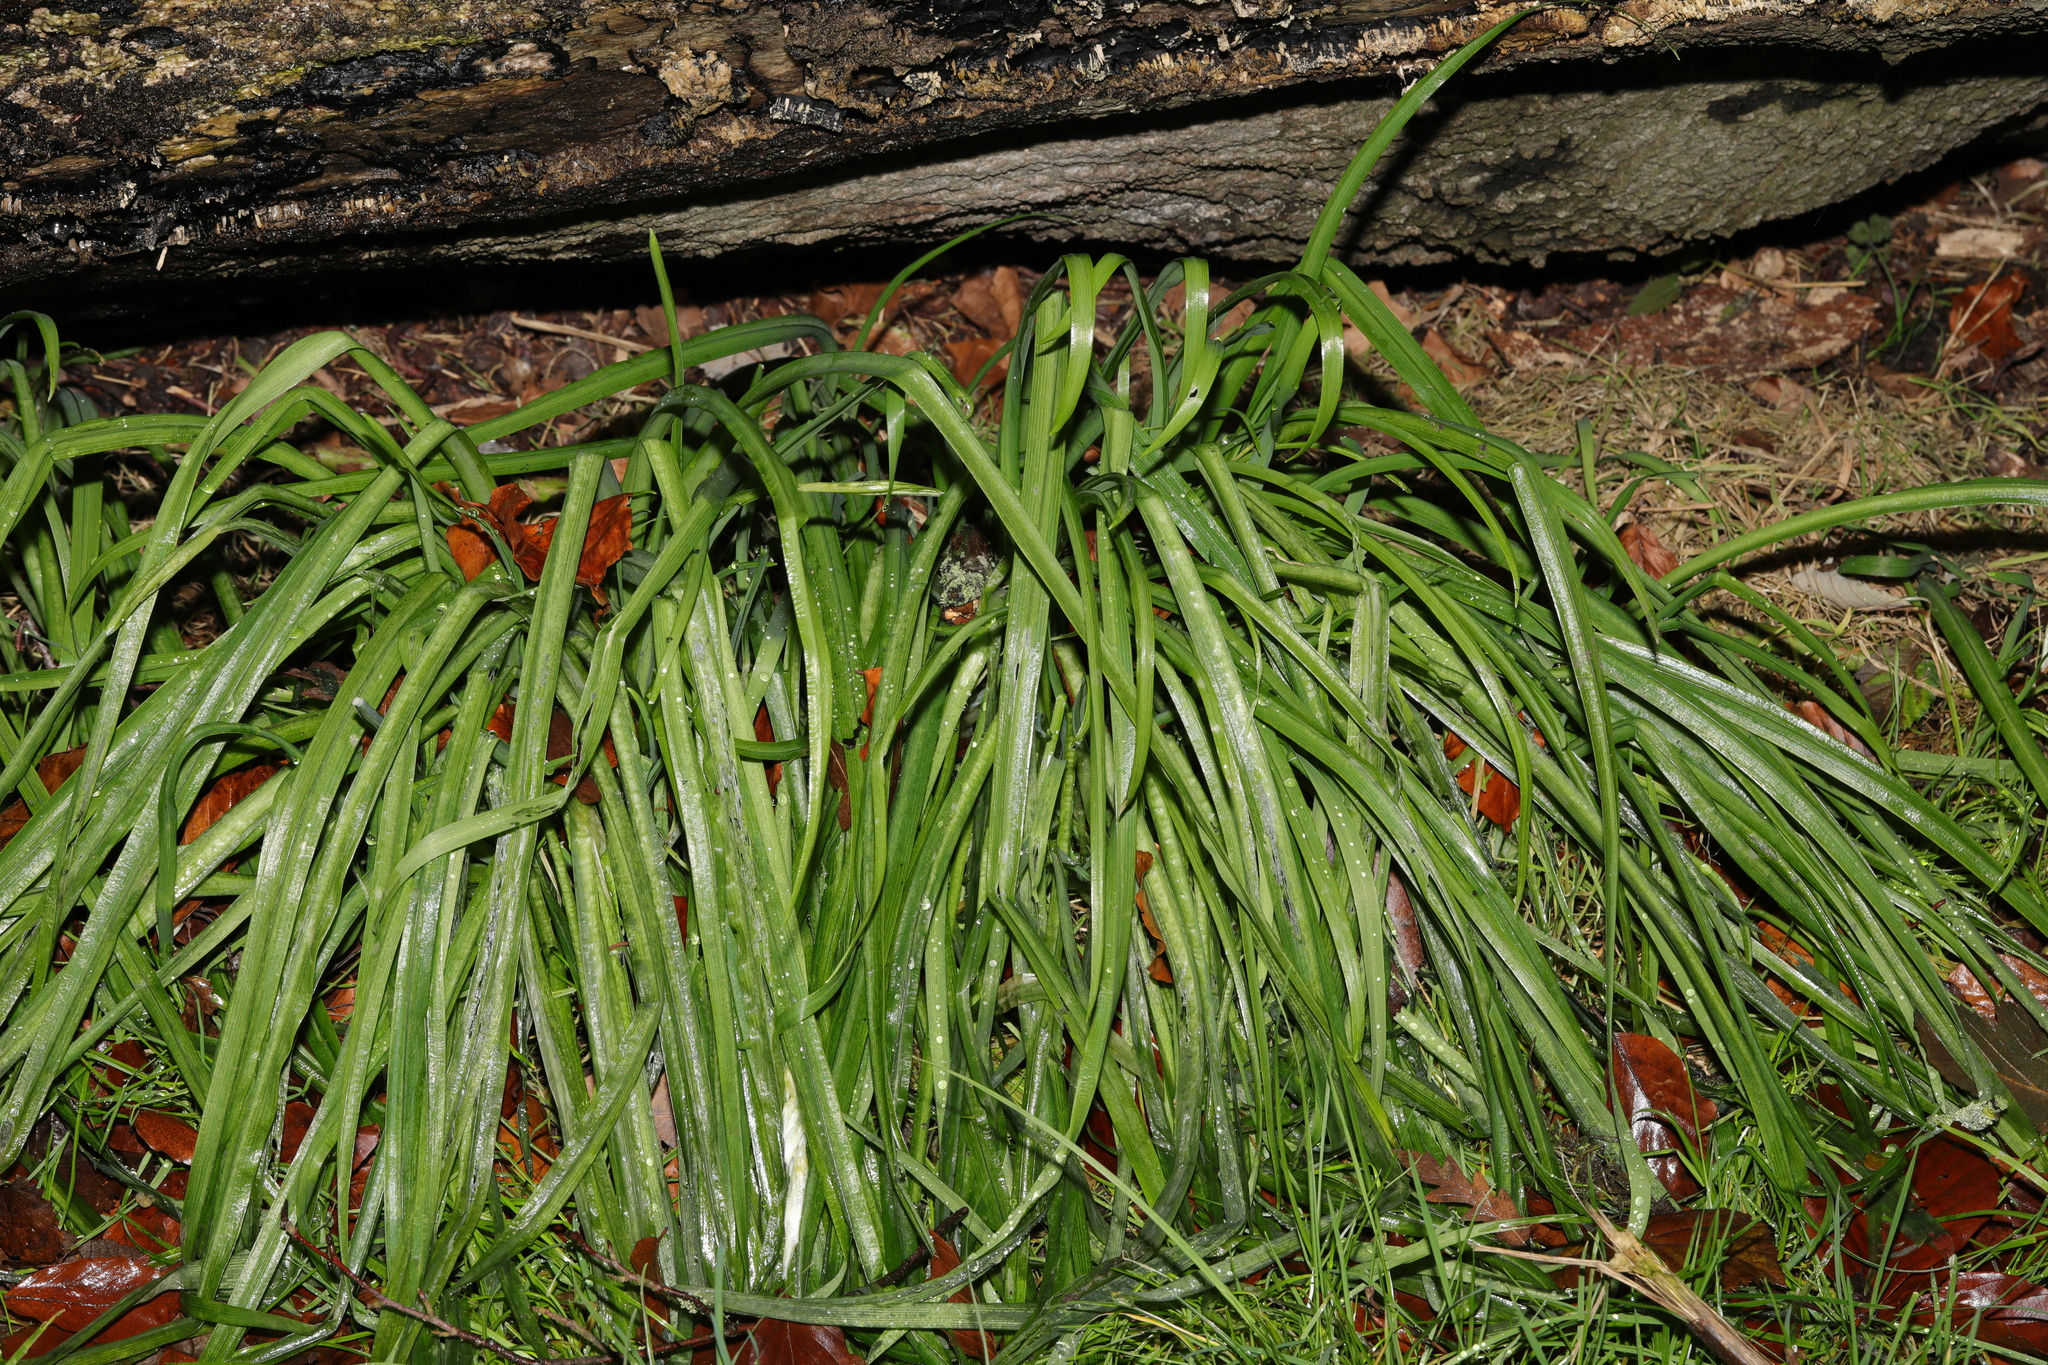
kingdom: Plantae
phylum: Tracheophyta
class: Liliopsida
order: Asparagales
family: Amaryllidaceae
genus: Allium
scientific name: Allium triquetrum
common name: Three-cornered garlic
